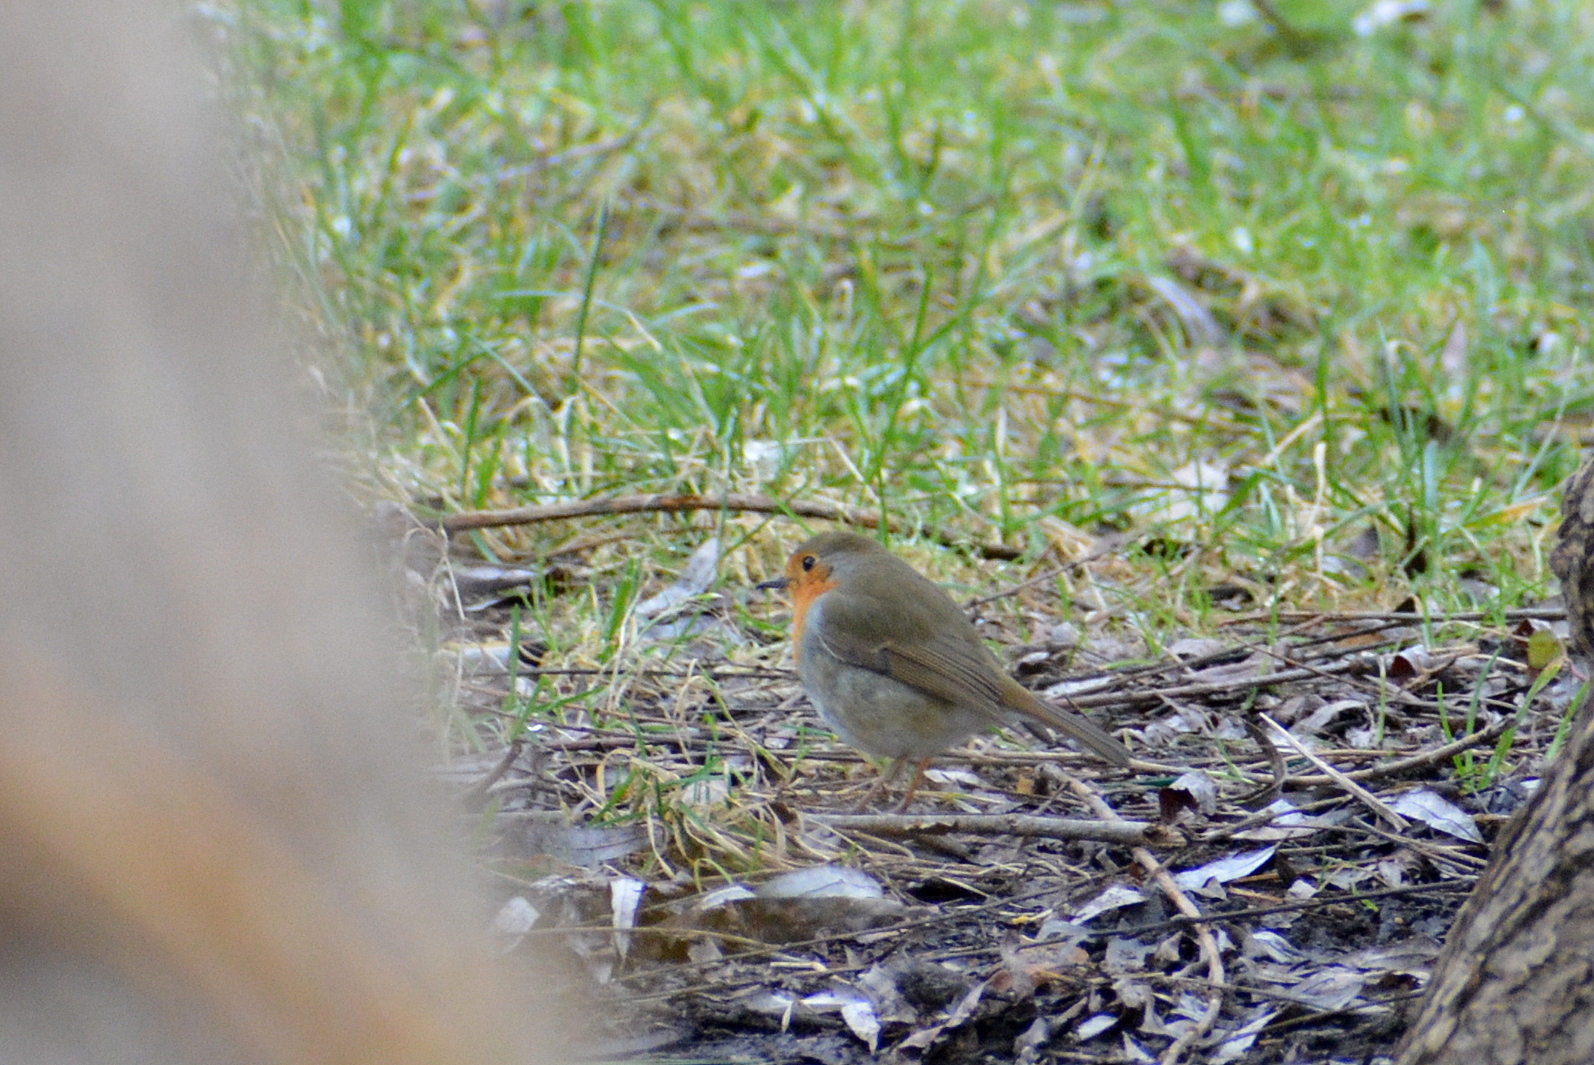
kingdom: Animalia
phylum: Chordata
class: Aves
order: Passeriformes
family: Muscicapidae
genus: Erithacus
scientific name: Erithacus rubecula
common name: European robin
